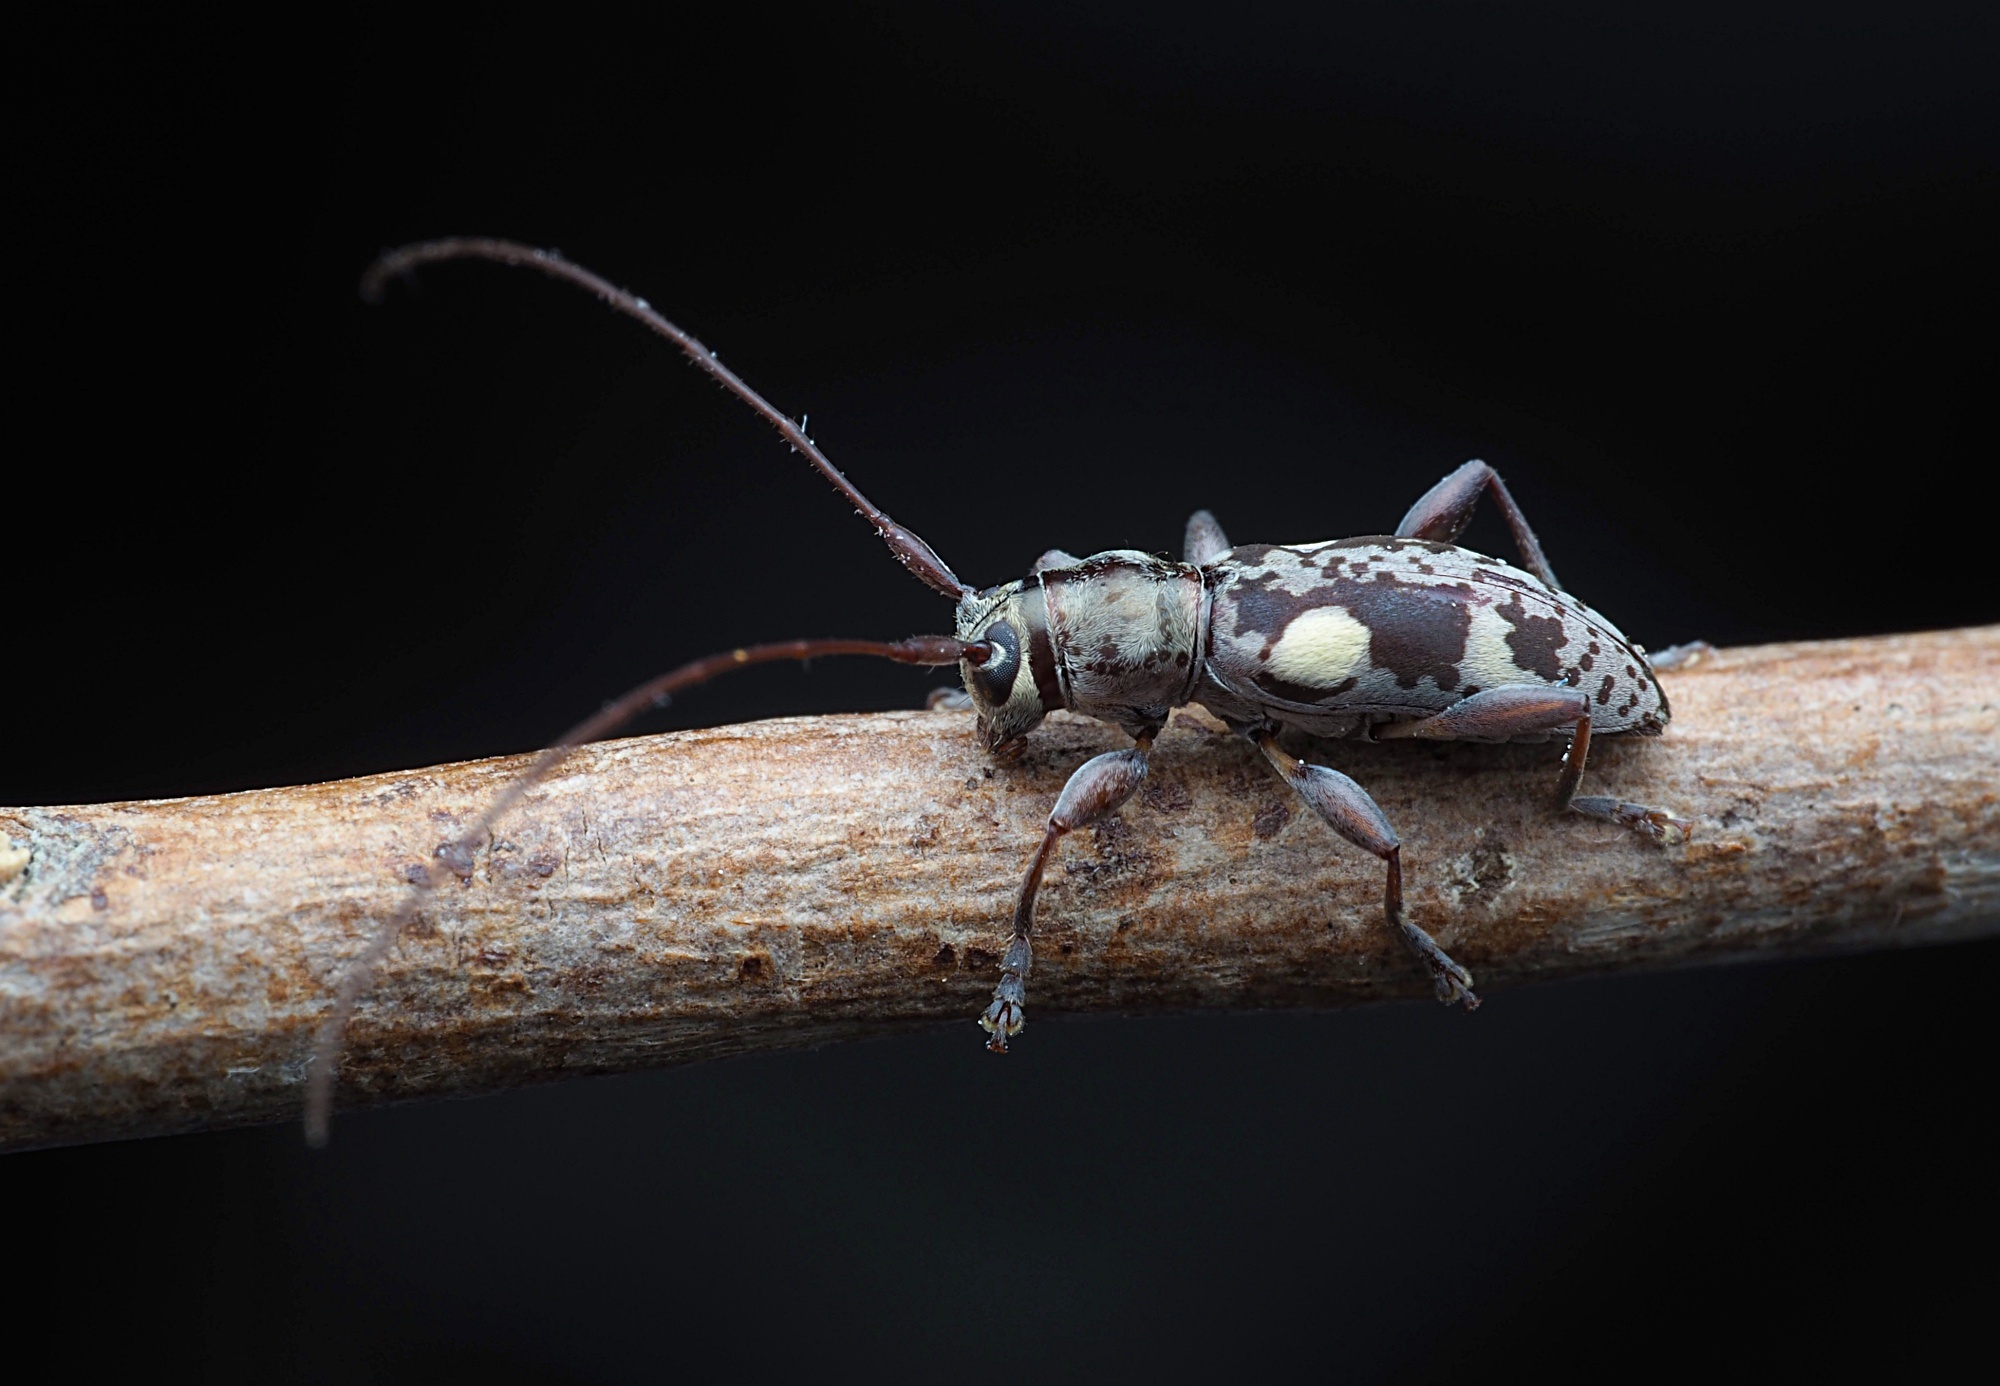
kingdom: Animalia
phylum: Arthropoda
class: Insecta
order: Coleoptera
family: Cerambycidae
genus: Stenellipsis
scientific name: Stenellipsis bimaculata
